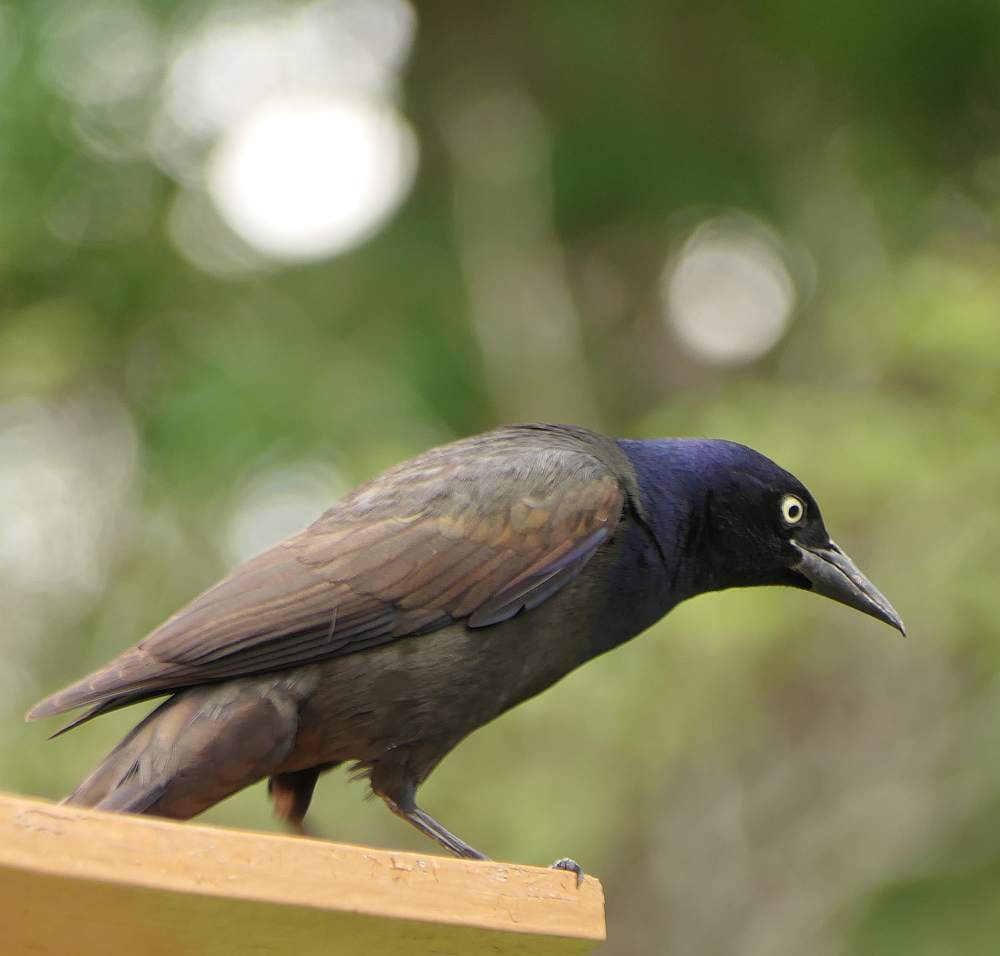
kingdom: Animalia
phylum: Chordata
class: Aves
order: Passeriformes
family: Icteridae
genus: Quiscalus
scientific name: Quiscalus quiscula
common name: Common grackle
